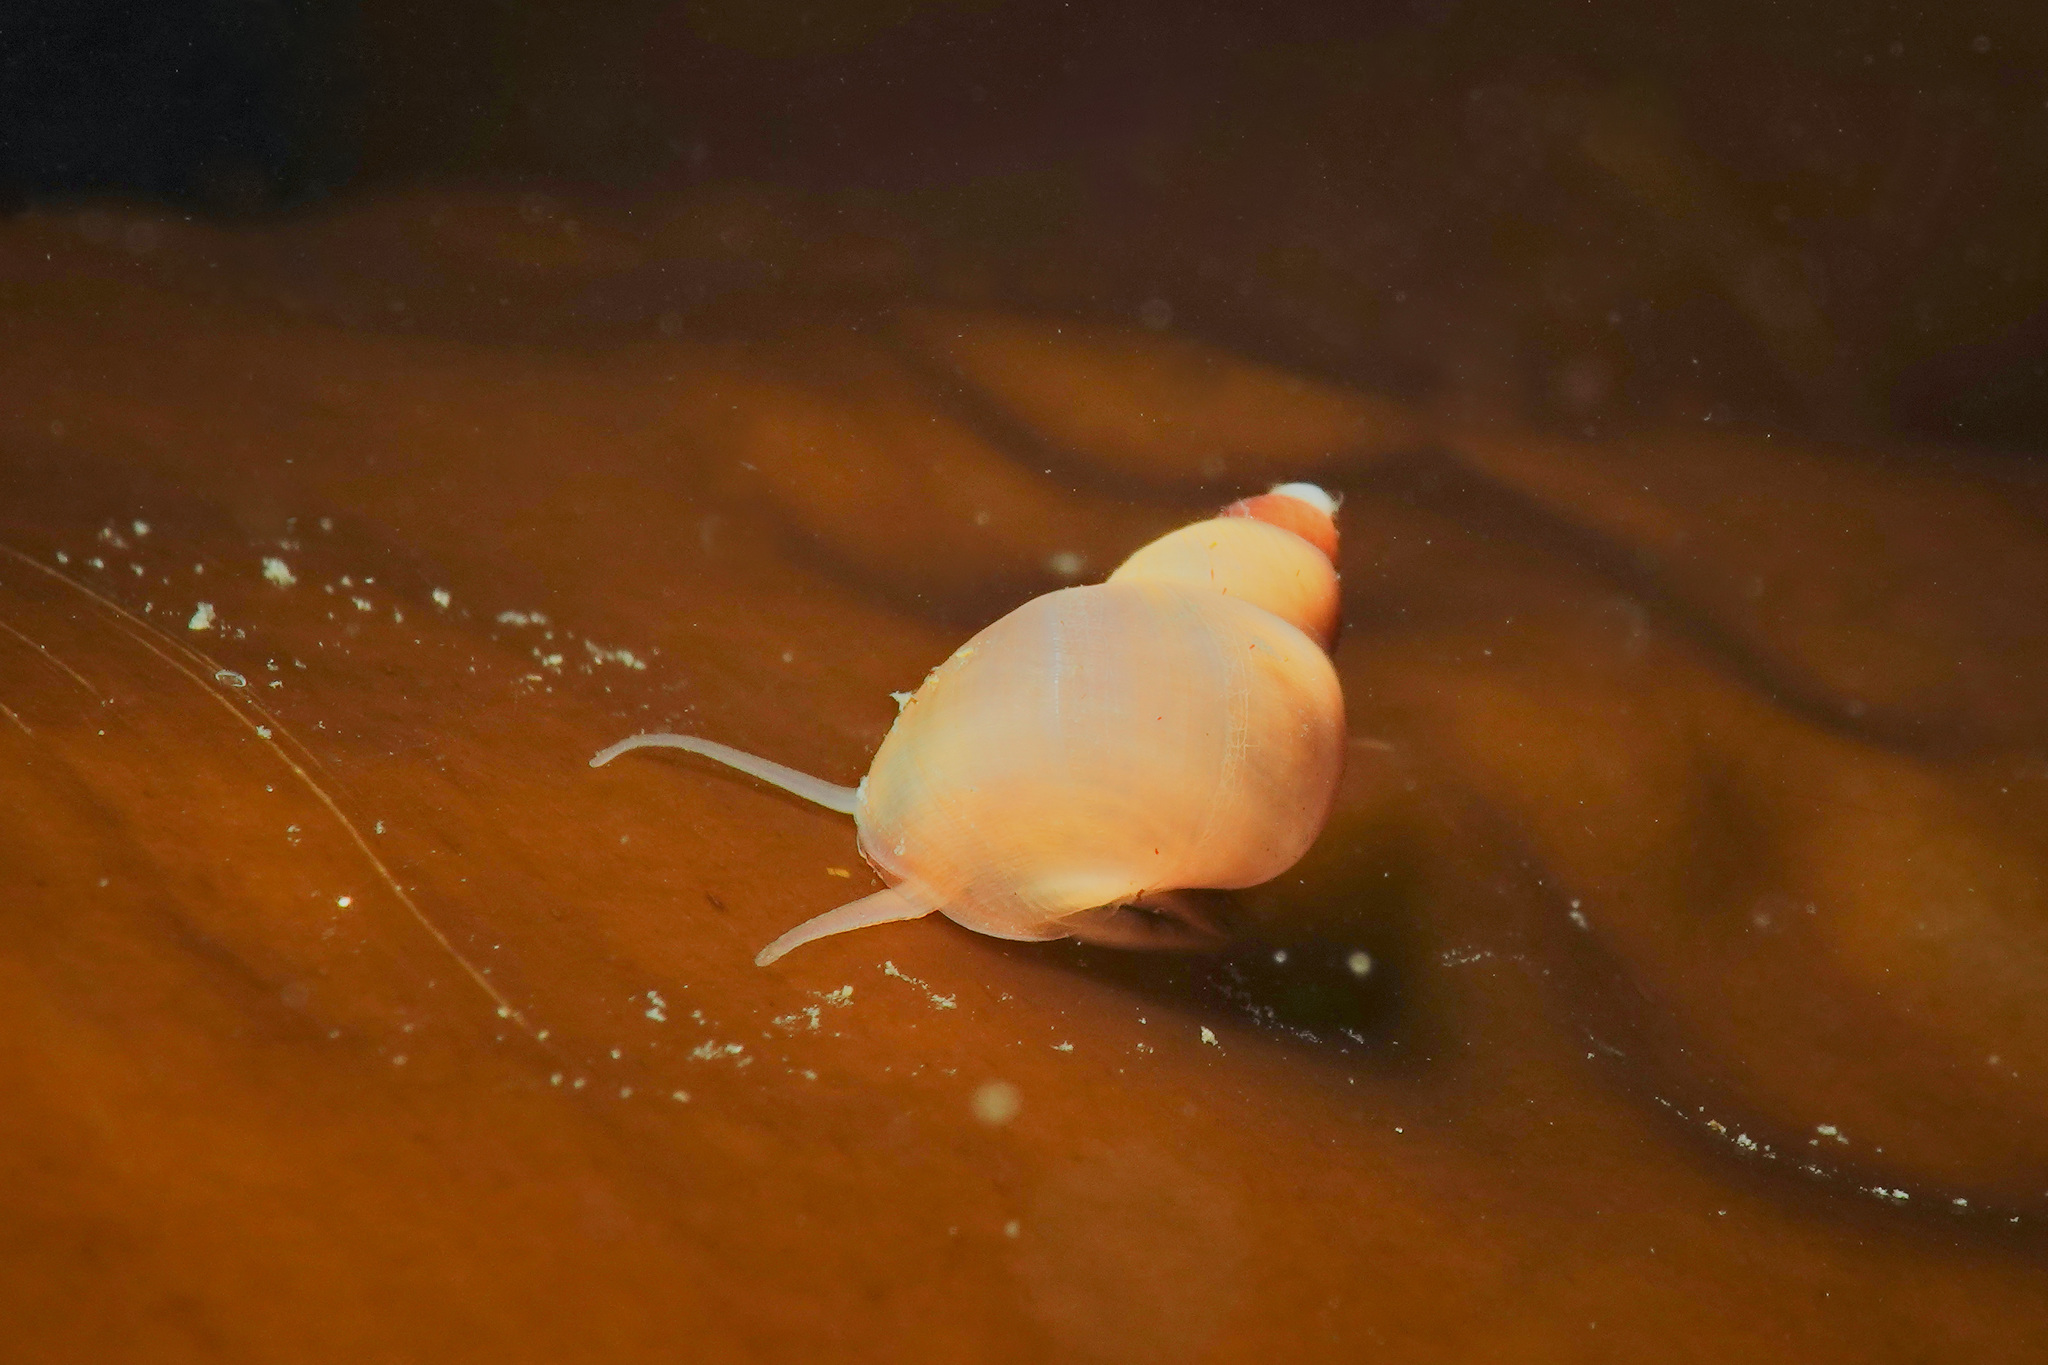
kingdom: Animalia
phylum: Mollusca
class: Gastropoda
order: Littorinimorpha
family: Littorinidae
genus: Lacuna
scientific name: Lacuna vincta
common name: Banded chink shell
